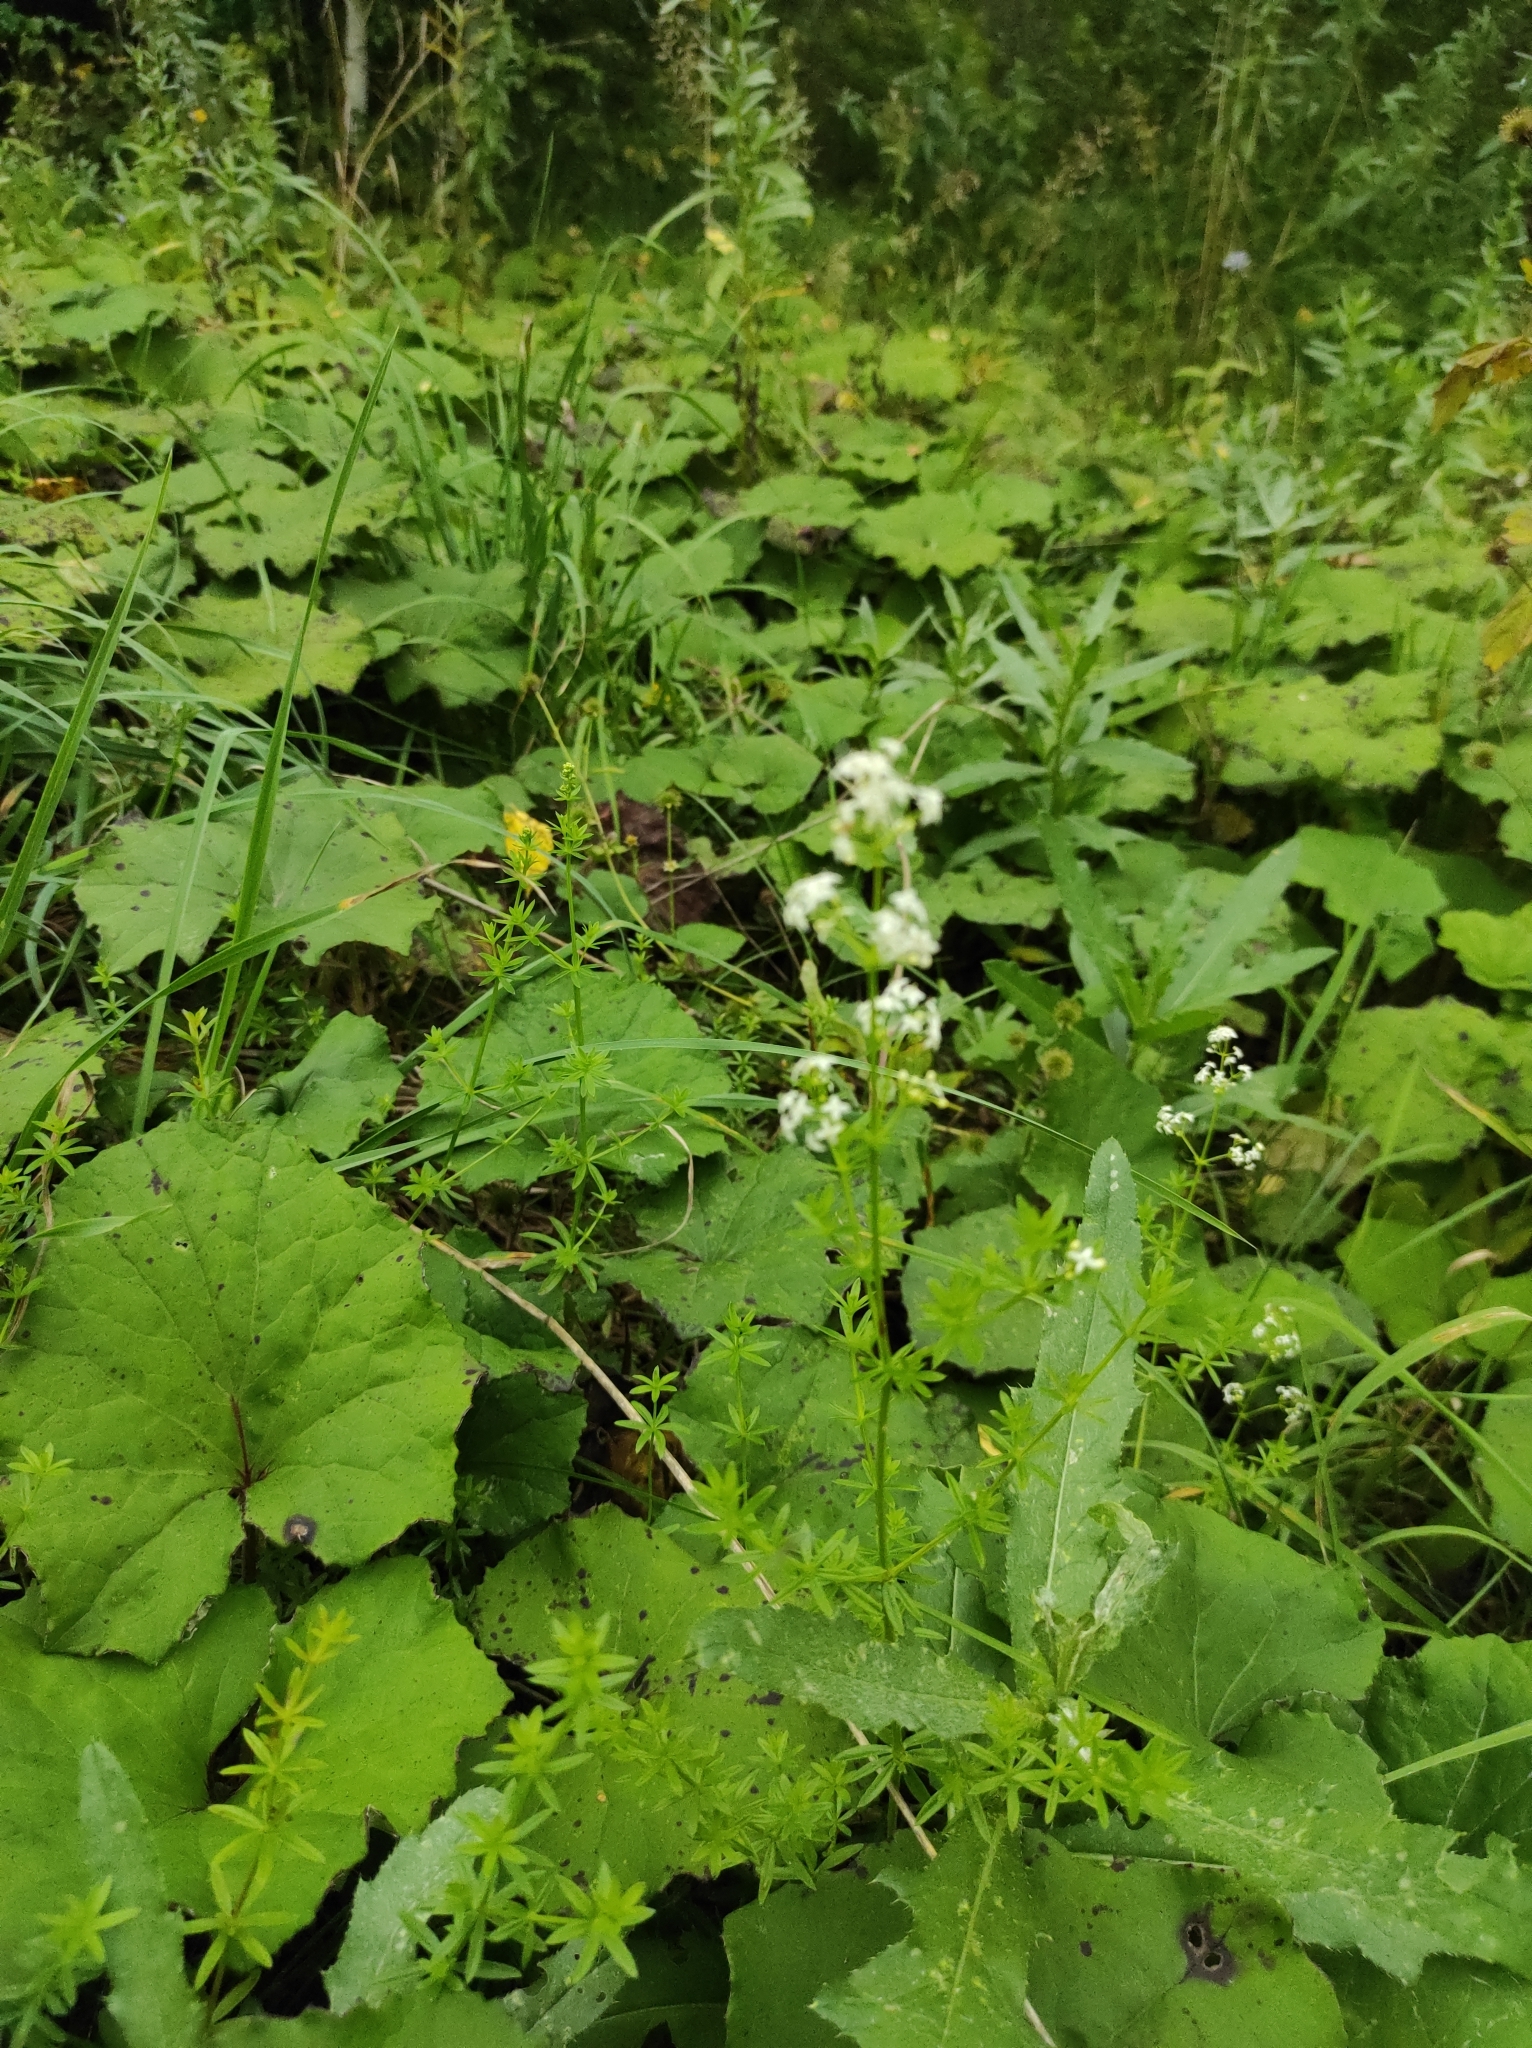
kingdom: Plantae
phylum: Tracheophyta
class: Magnoliopsida
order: Gentianales
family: Rubiaceae
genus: Galium
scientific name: Galium mollugo
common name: Hedge bedstraw
